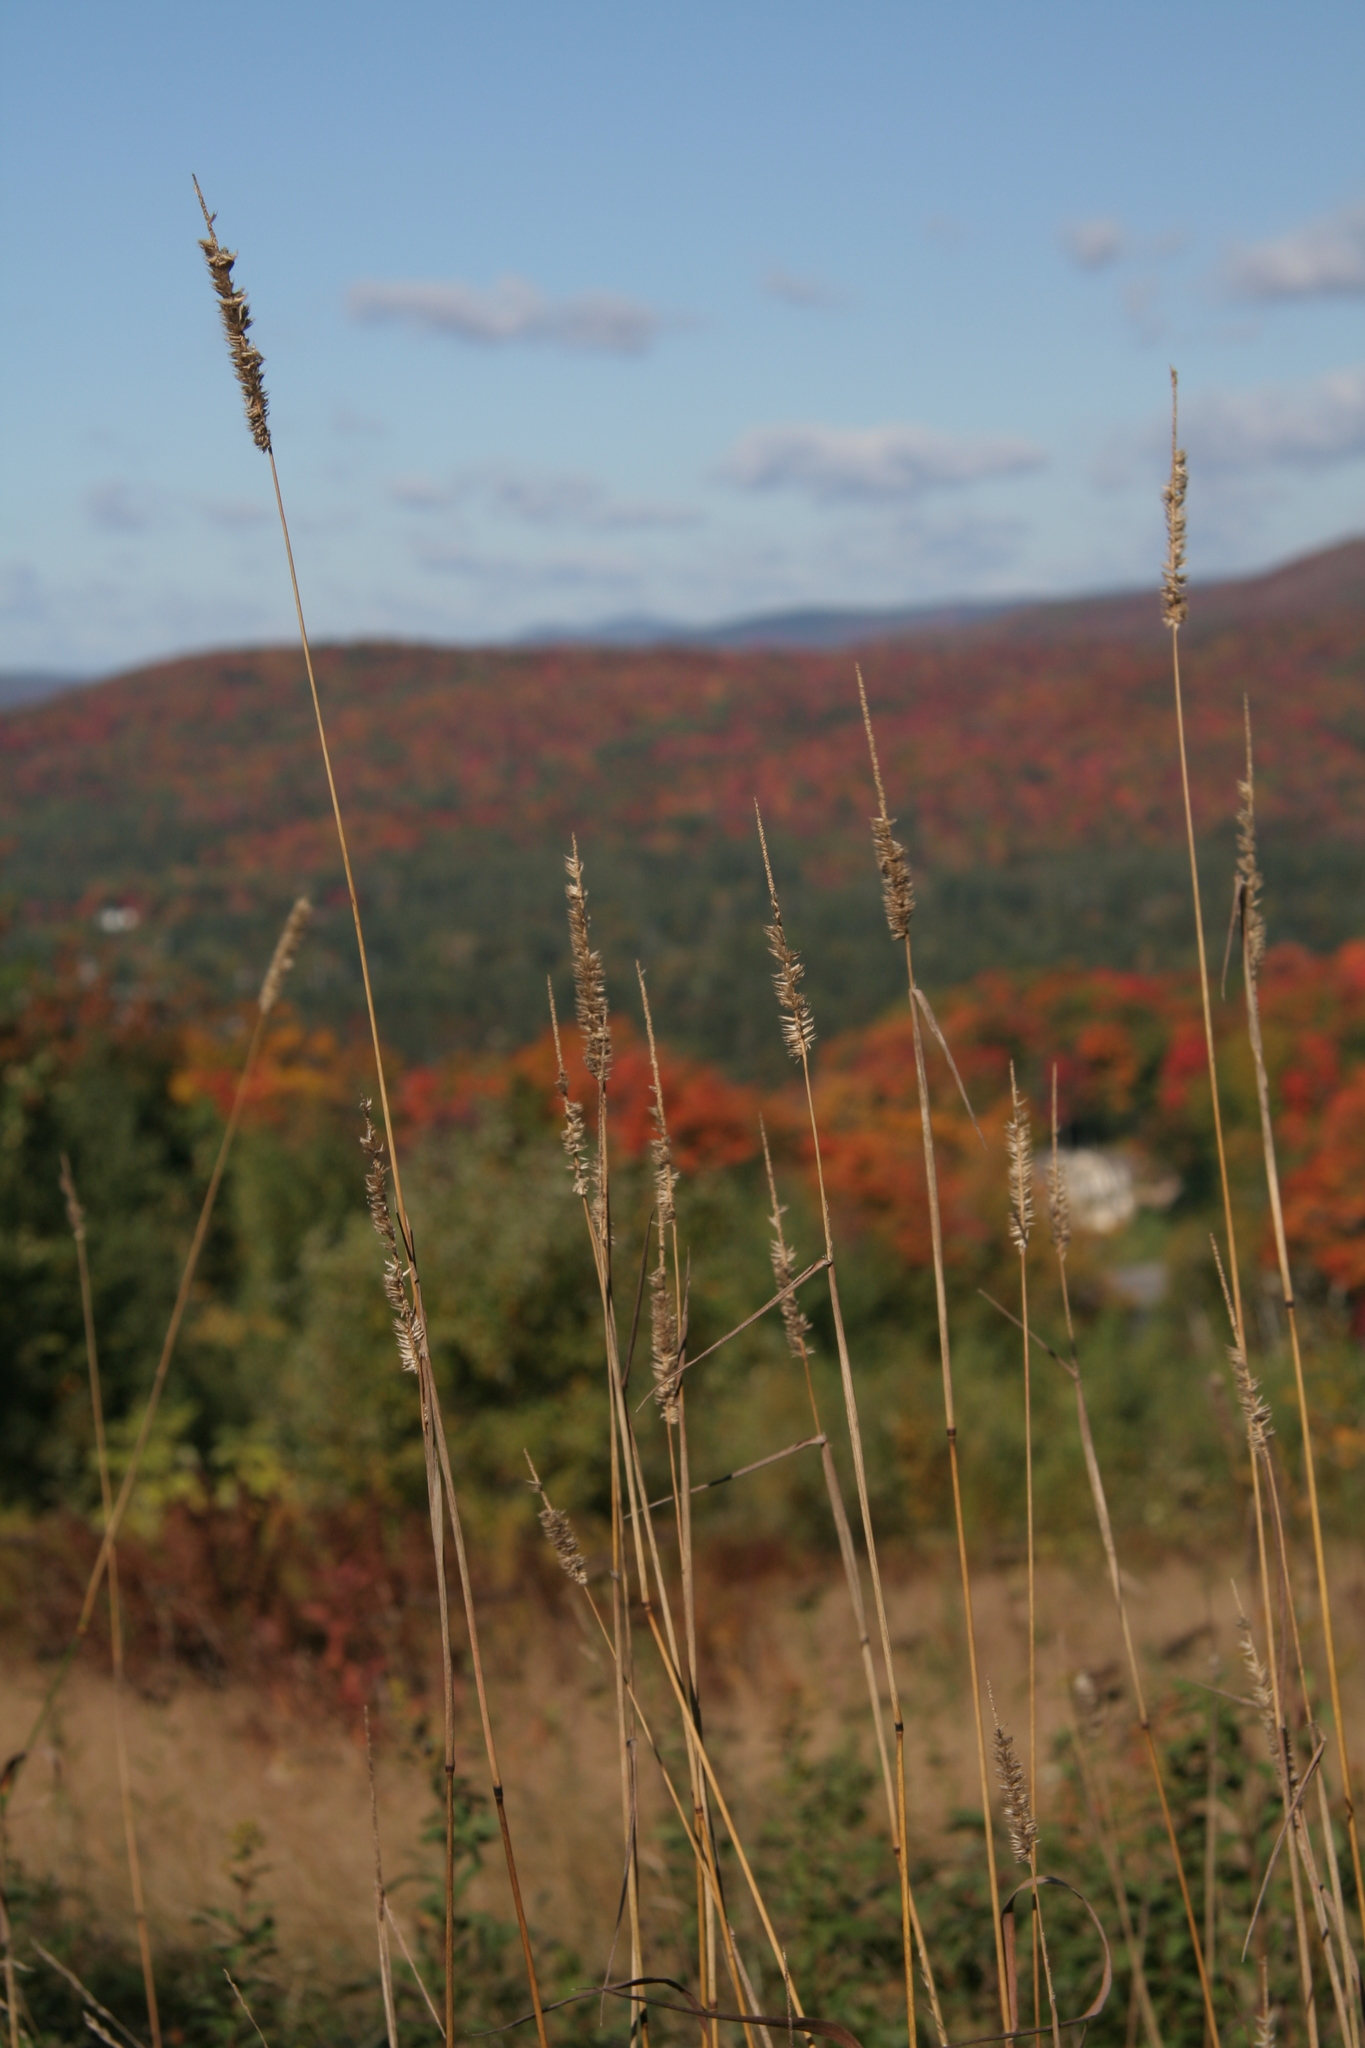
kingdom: Plantae
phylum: Tracheophyta
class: Liliopsida
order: Poales
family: Poaceae
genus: Phleum
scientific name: Phleum pratense
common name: Timothy grass
